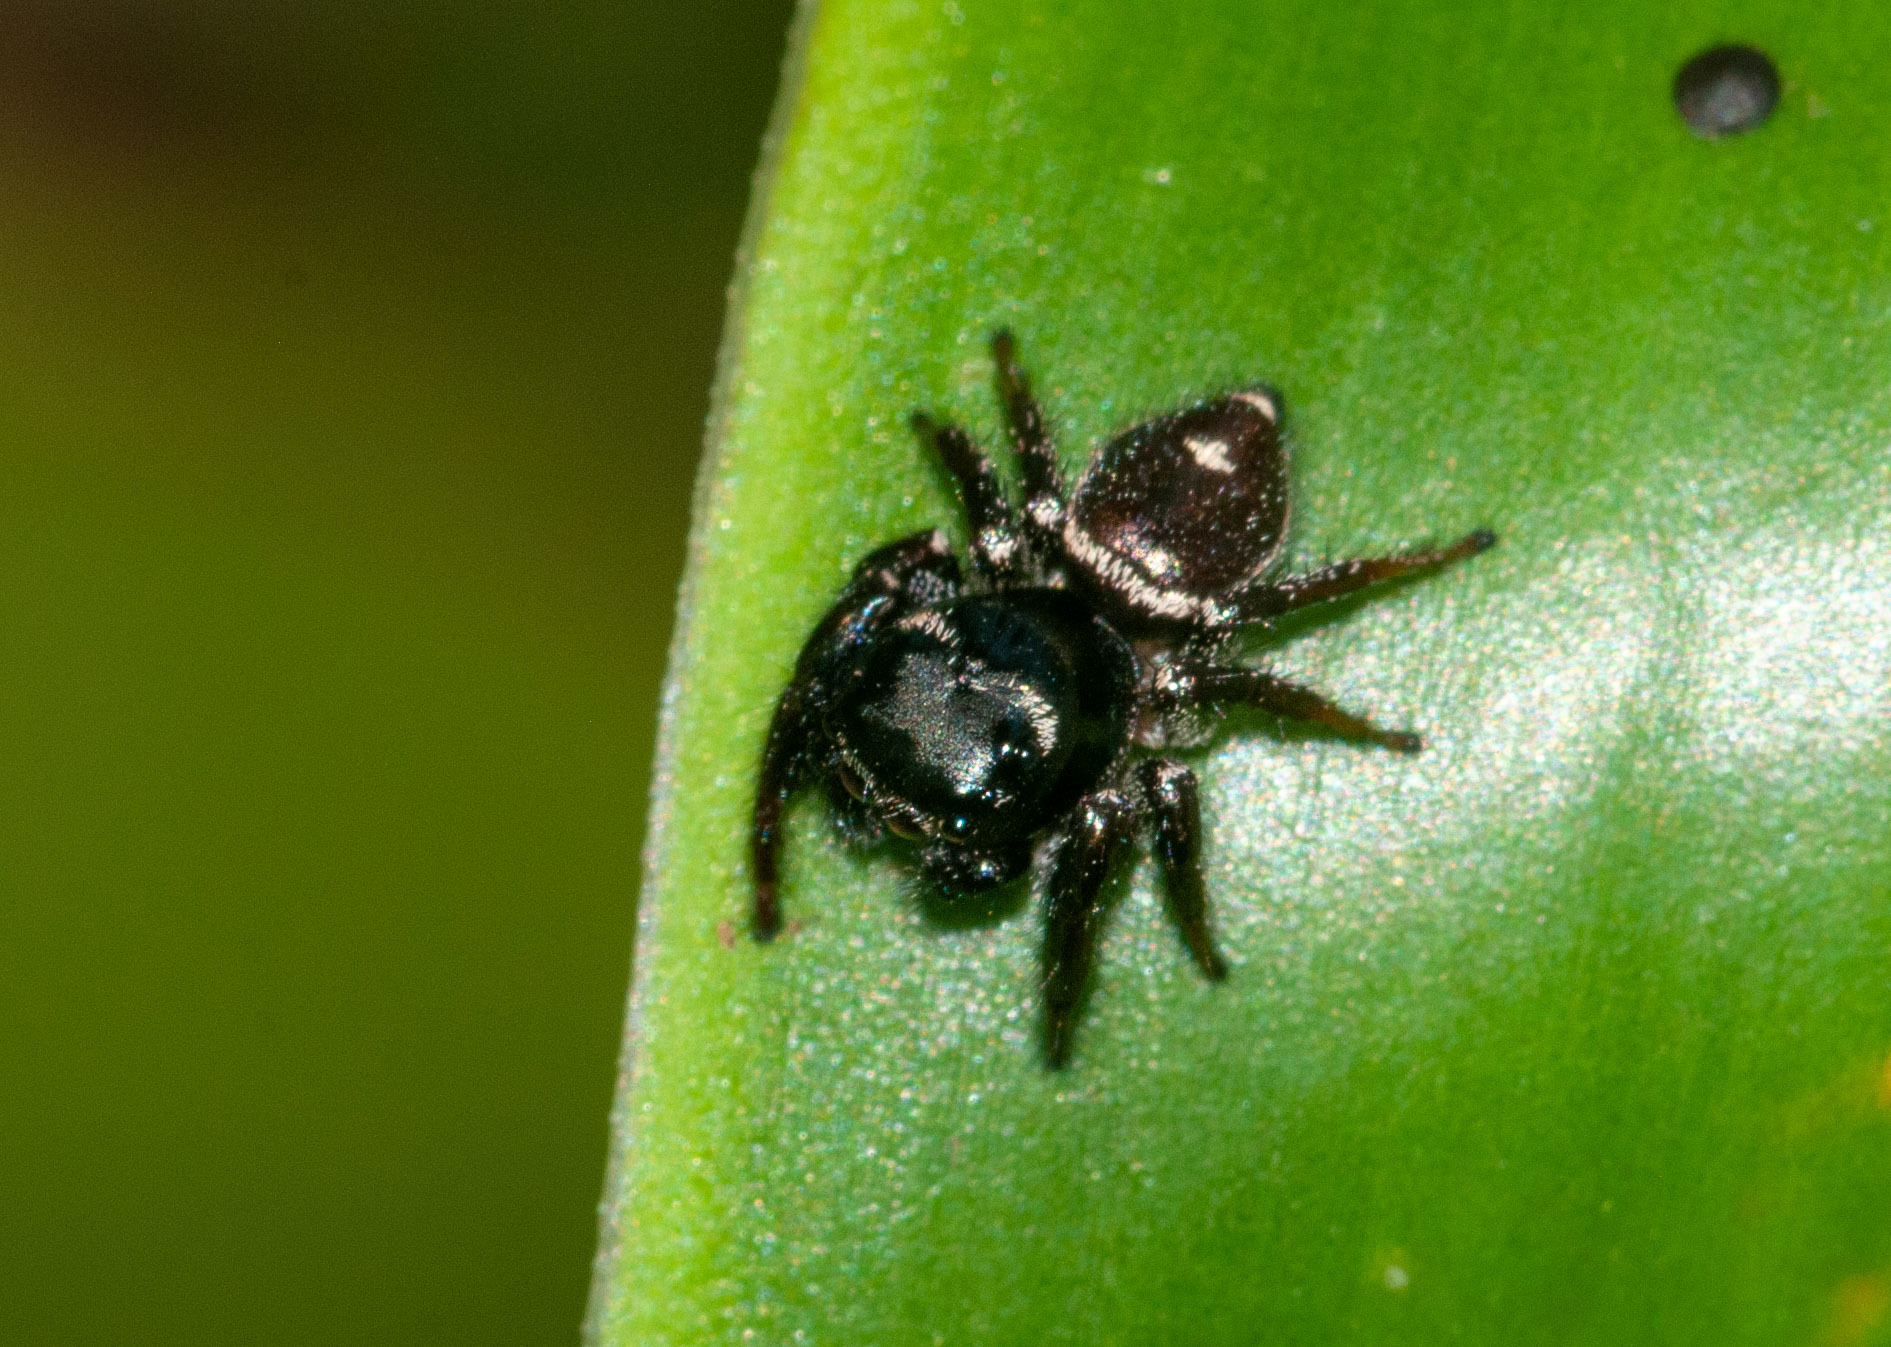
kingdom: Animalia
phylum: Arthropoda
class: Arachnida
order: Araneae
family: Salticidae
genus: Zenodorus
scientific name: Zenodorus orbiculatus
